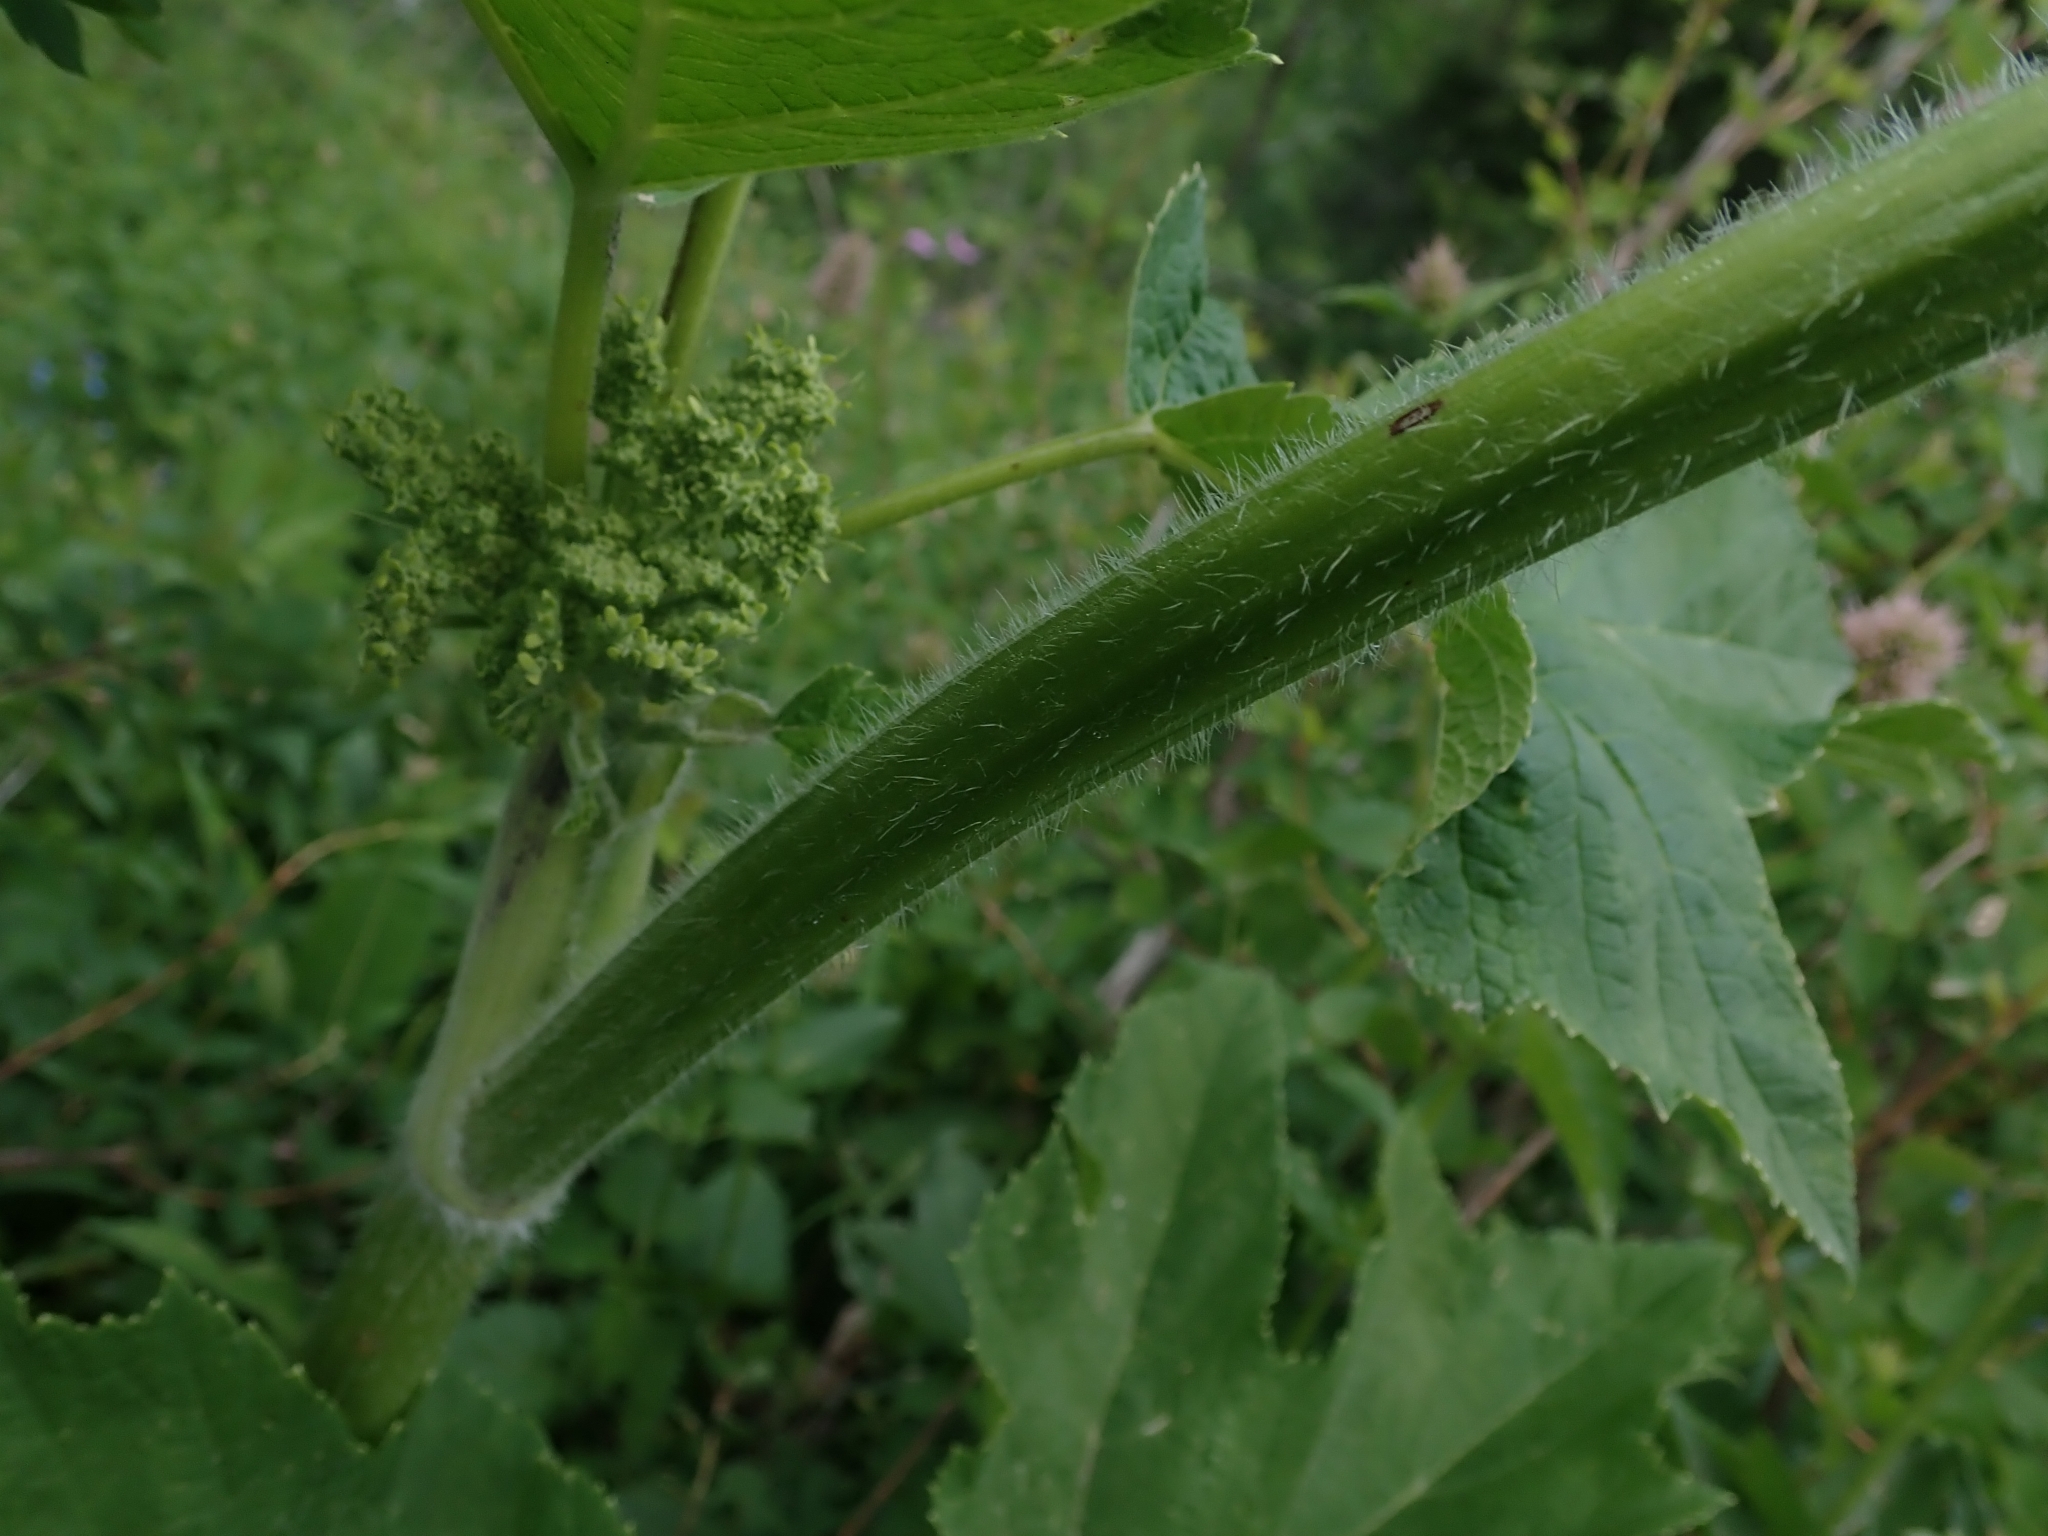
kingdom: Plantae
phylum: Tracheophyta
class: Magnoliopsida
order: Apiales
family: Apiaceae
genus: Heracleum
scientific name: Heracleum maximum
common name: American cow parsnip
